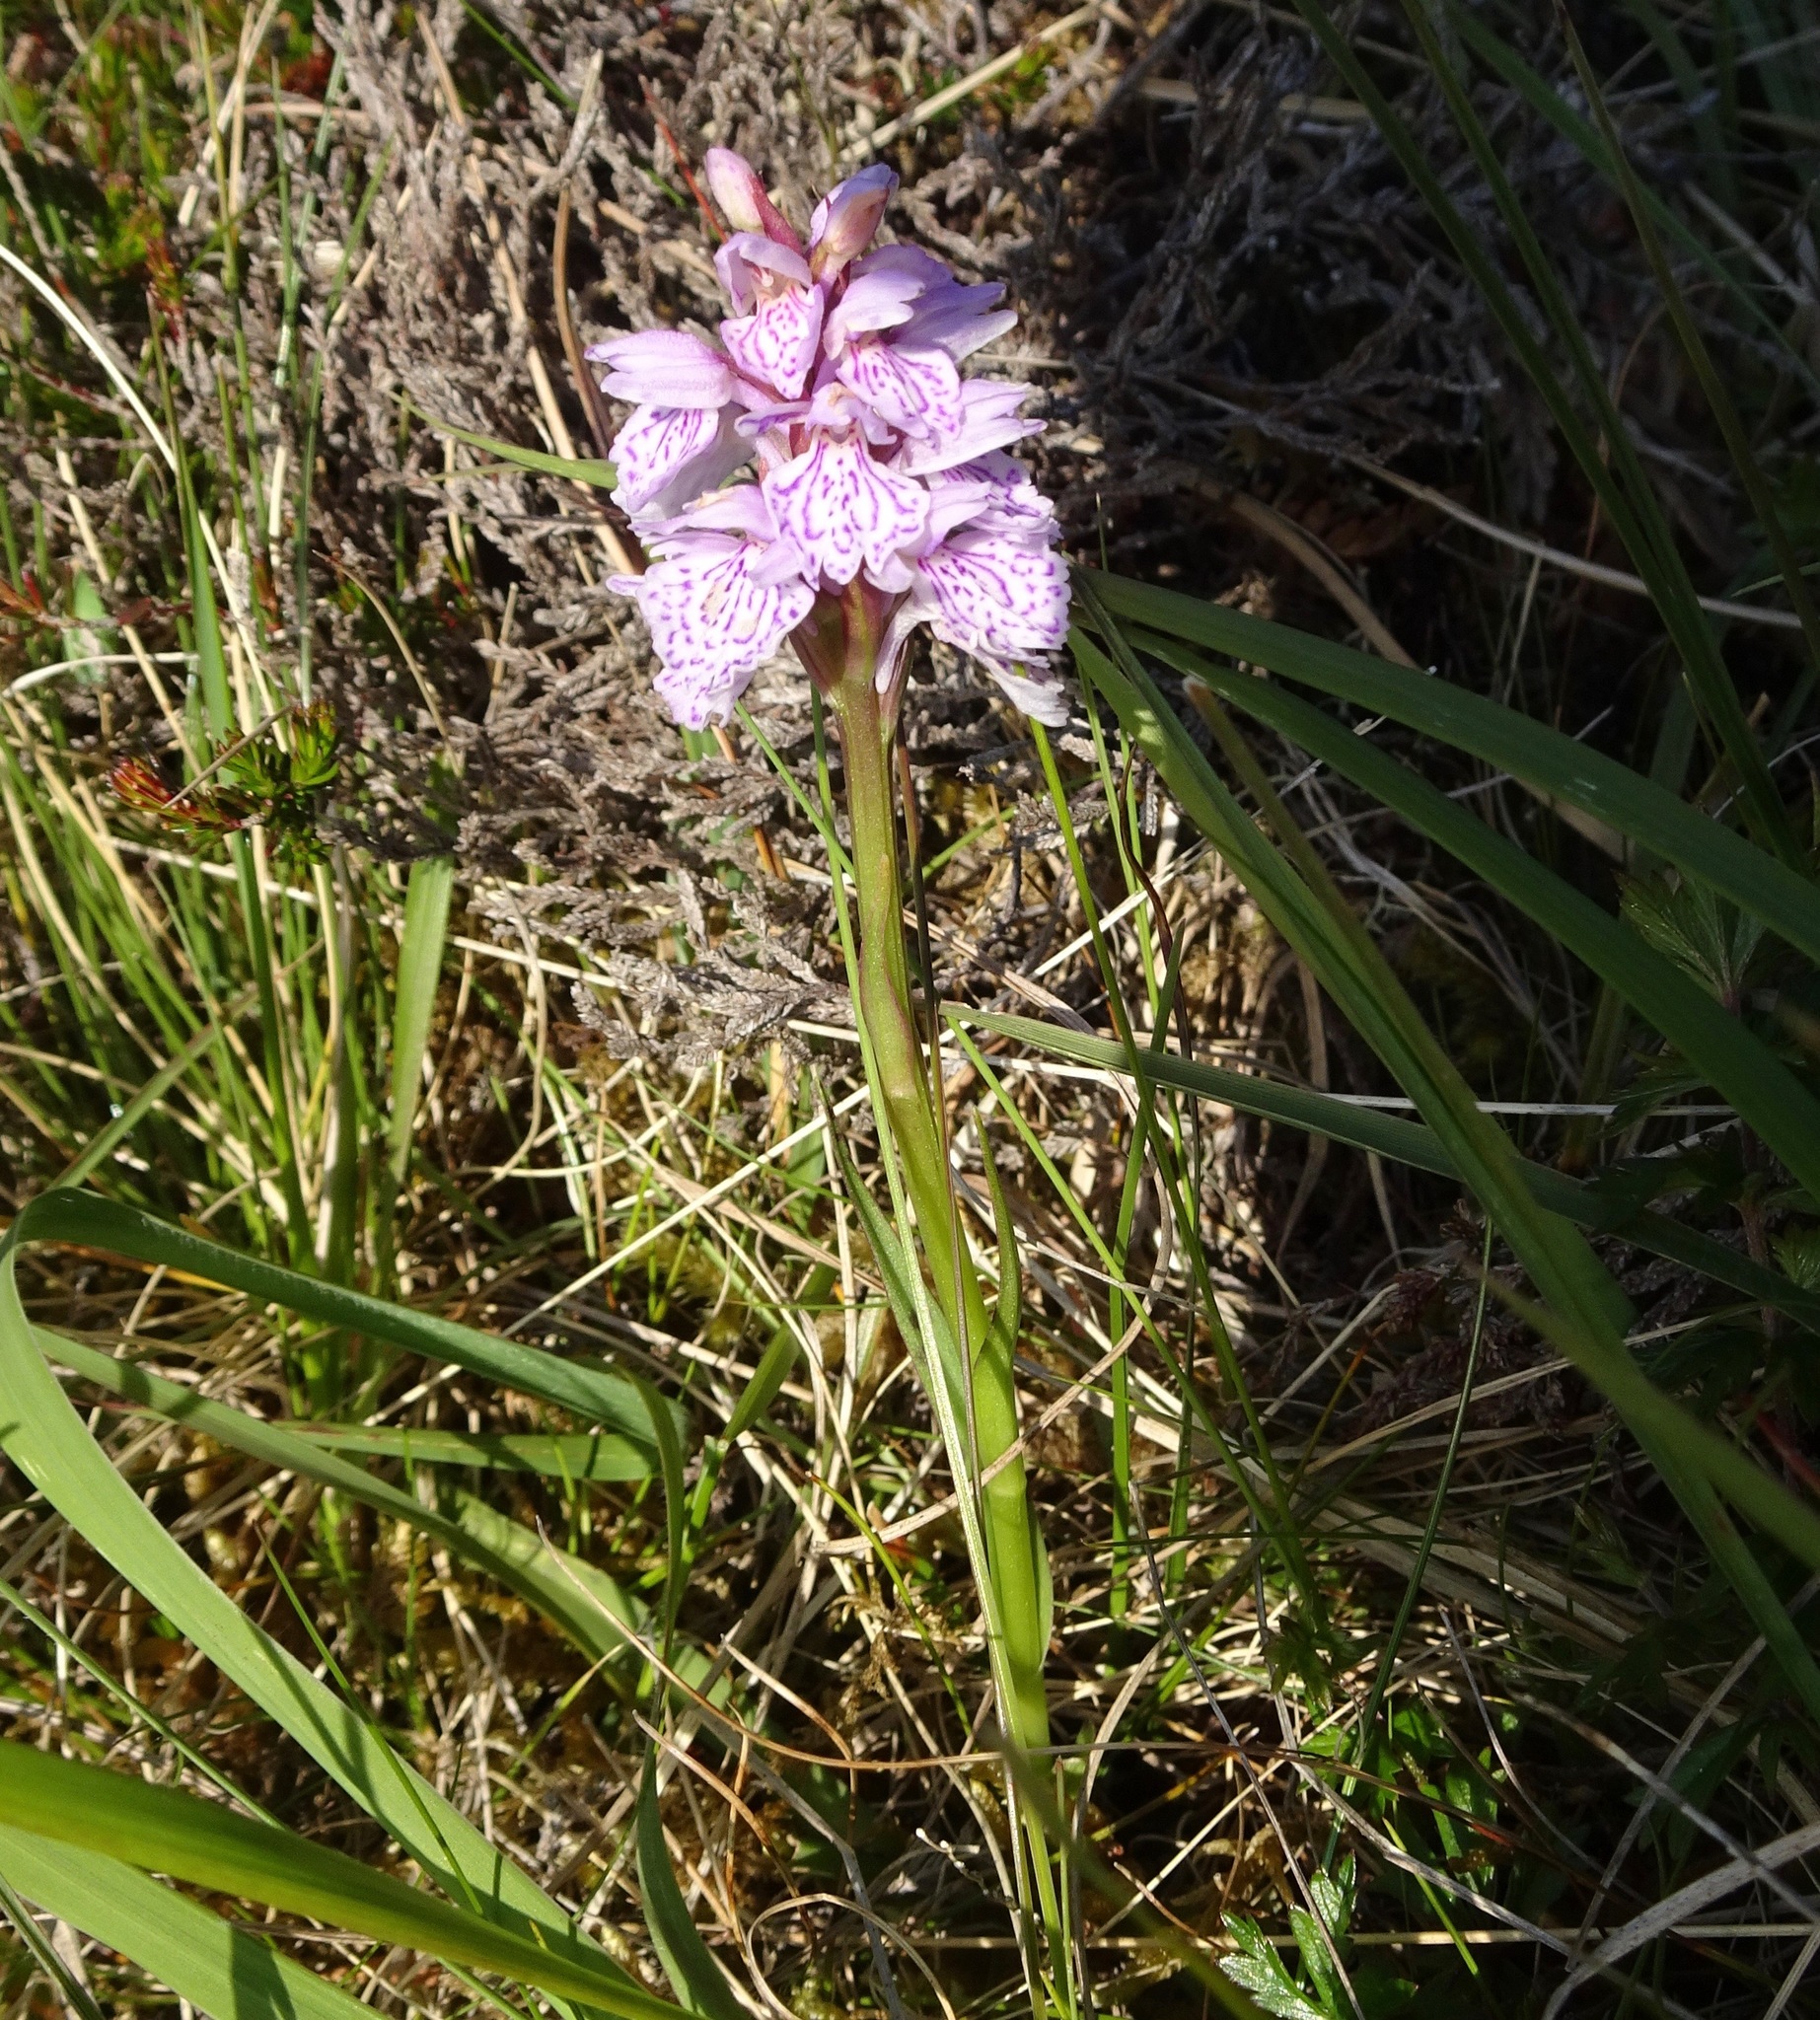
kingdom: Plantae
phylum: Tracheophyta
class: Liliopsida
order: Asparagales
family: Orchidaceae
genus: Dactylorhiza
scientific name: Dactylorhiza maculata
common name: Heath spotted-orchid
